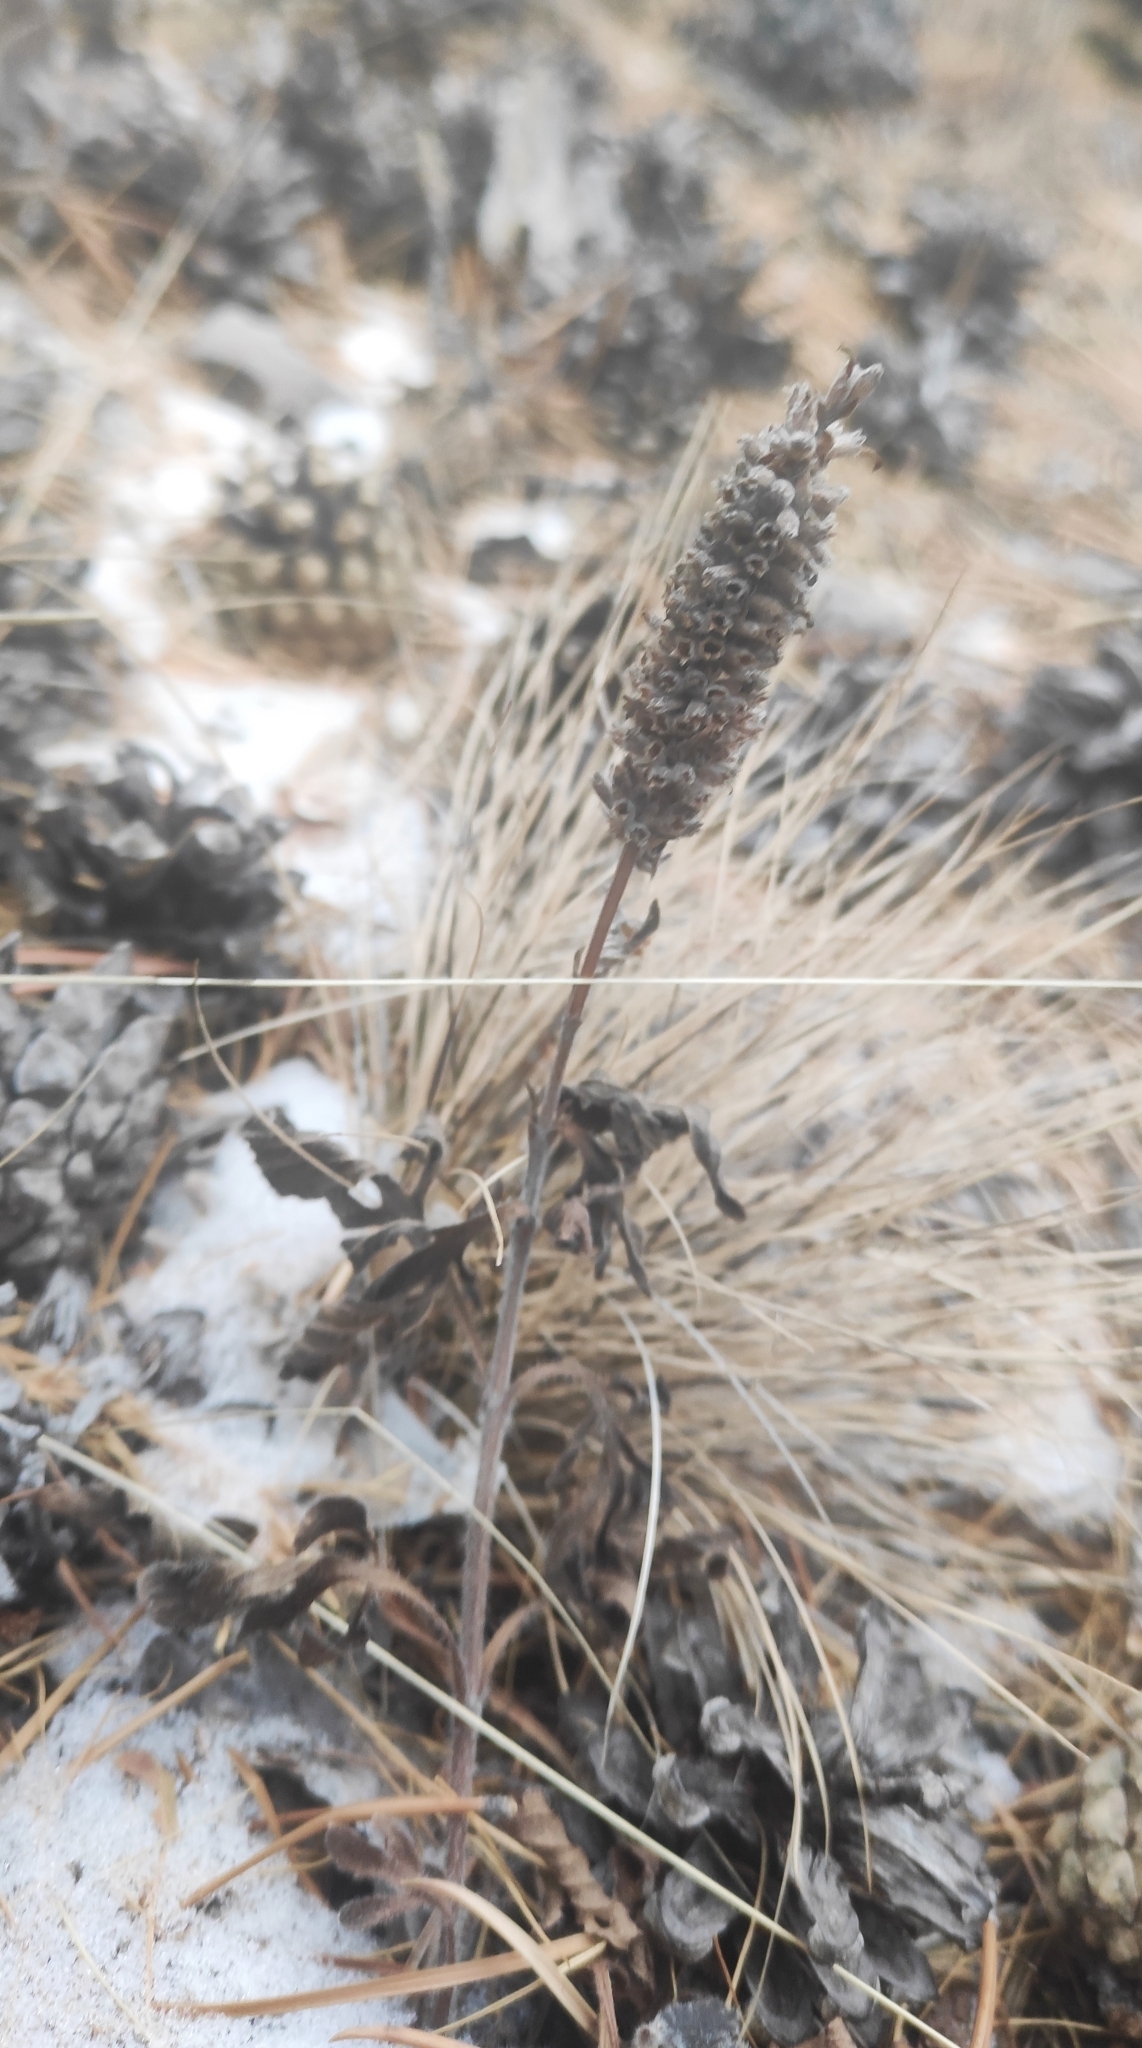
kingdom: Plantae
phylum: Tracheophyta
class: Magnoliopsida
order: Lamiales
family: Lamiaceae
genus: Nepeta
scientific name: Nepeta multifida
